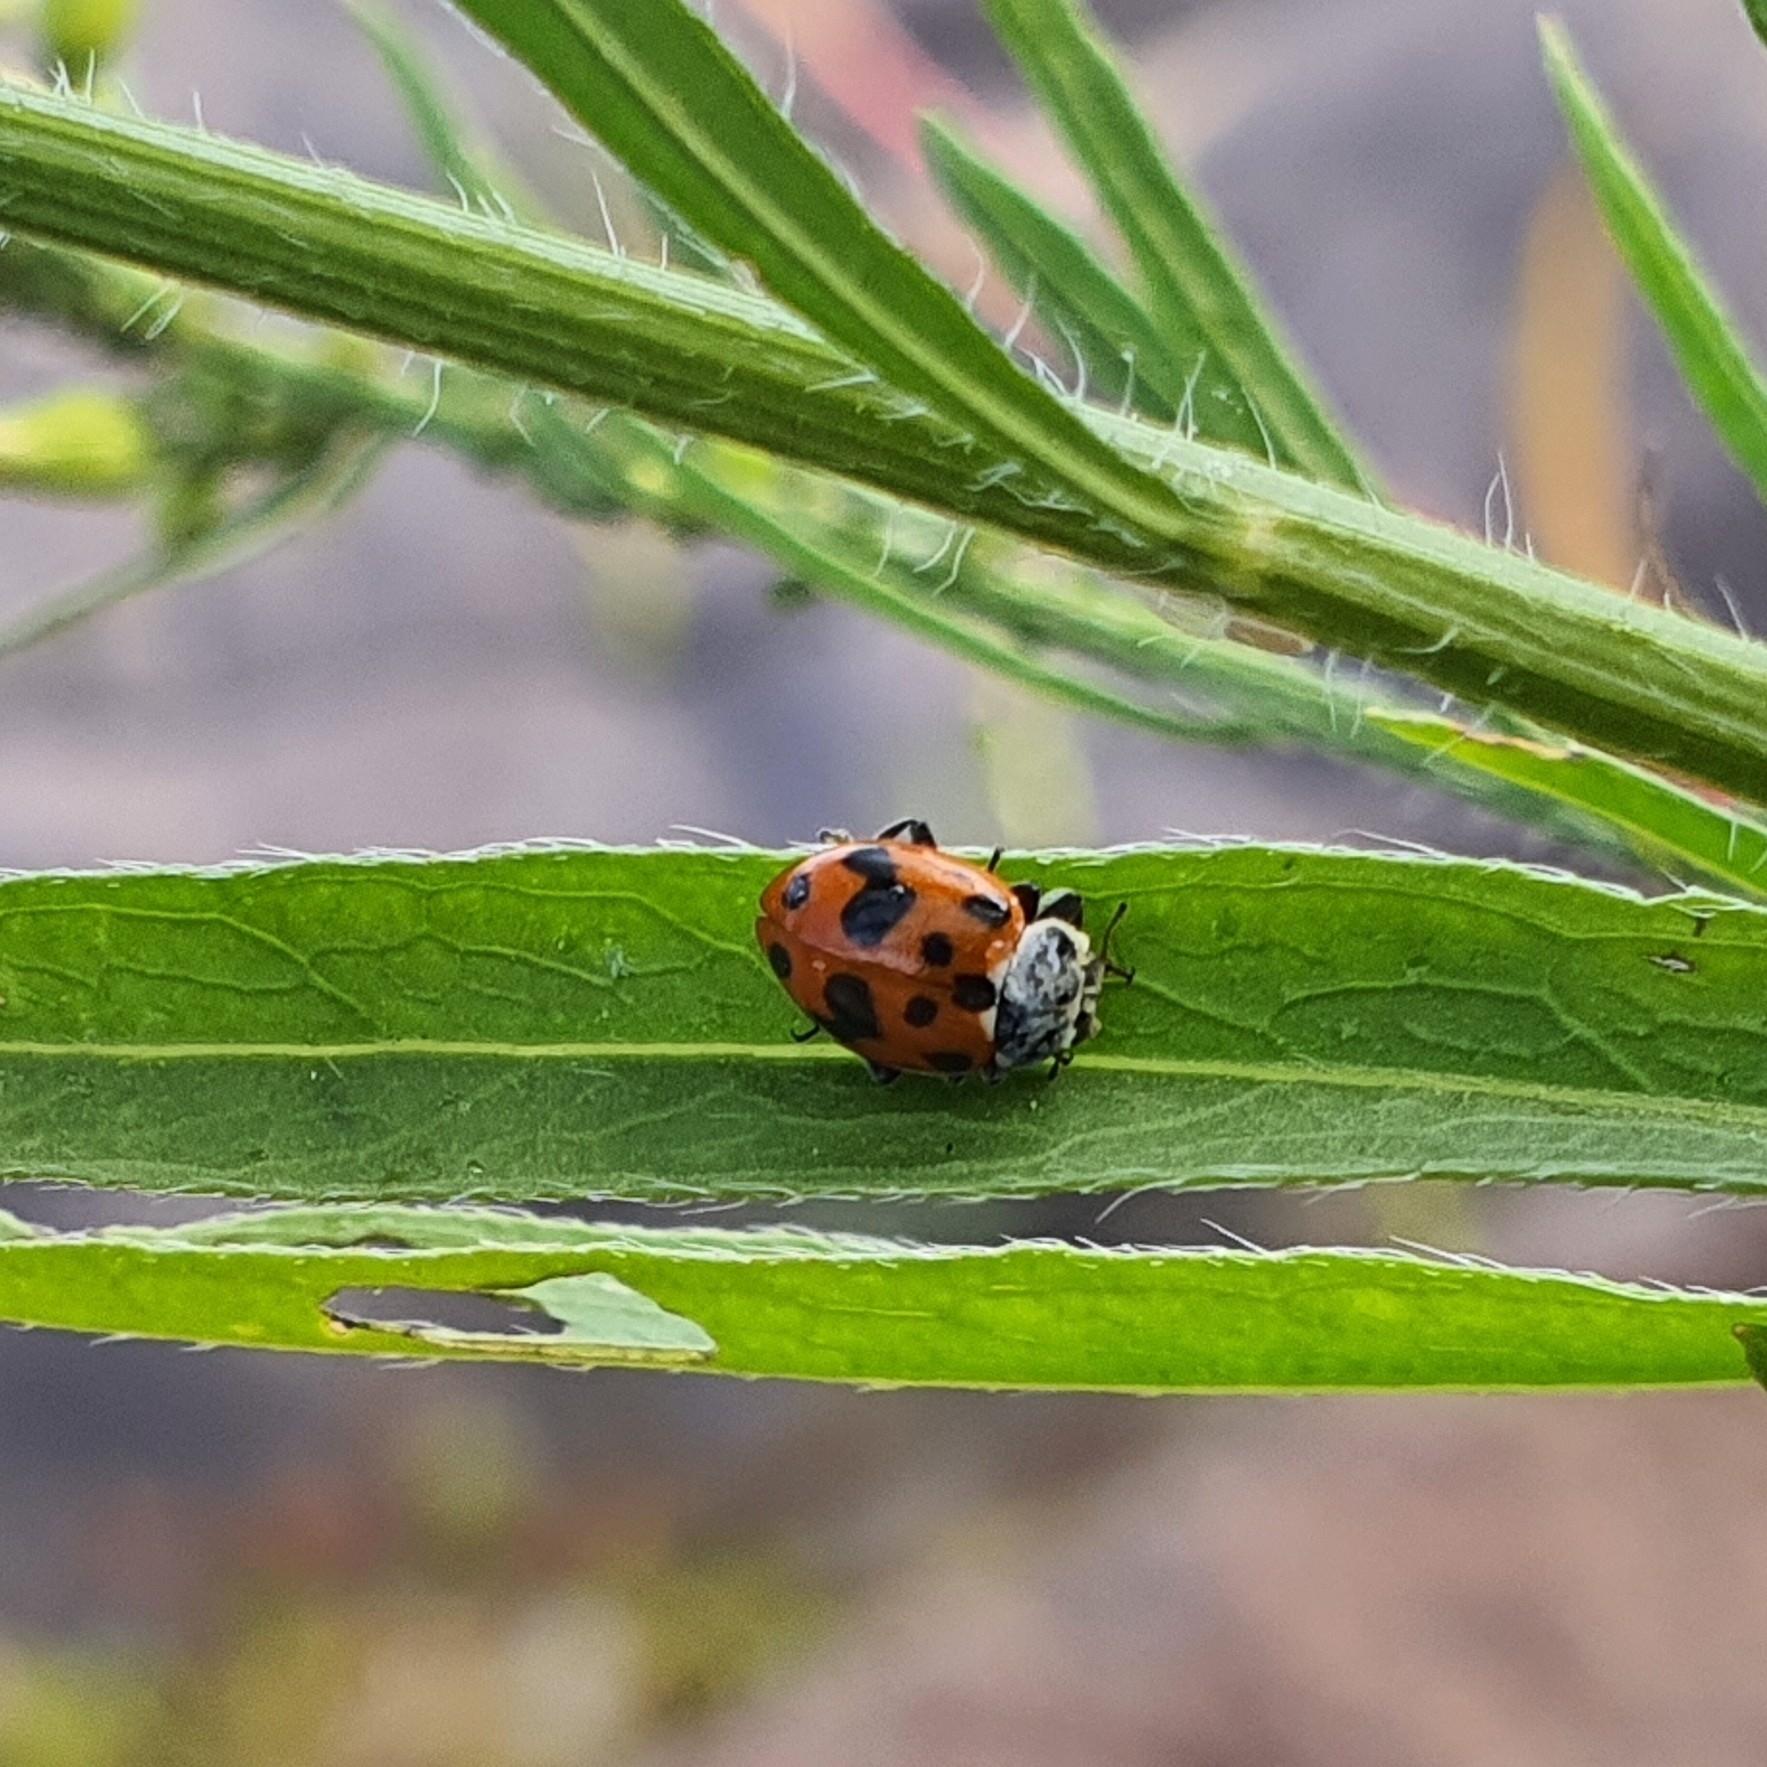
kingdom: Animalia
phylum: Arthropoda
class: Insecta
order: Coleoptera
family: Coccinellidae
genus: Hippodamia
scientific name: Hippodamia variegata
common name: Ladybird beetle
